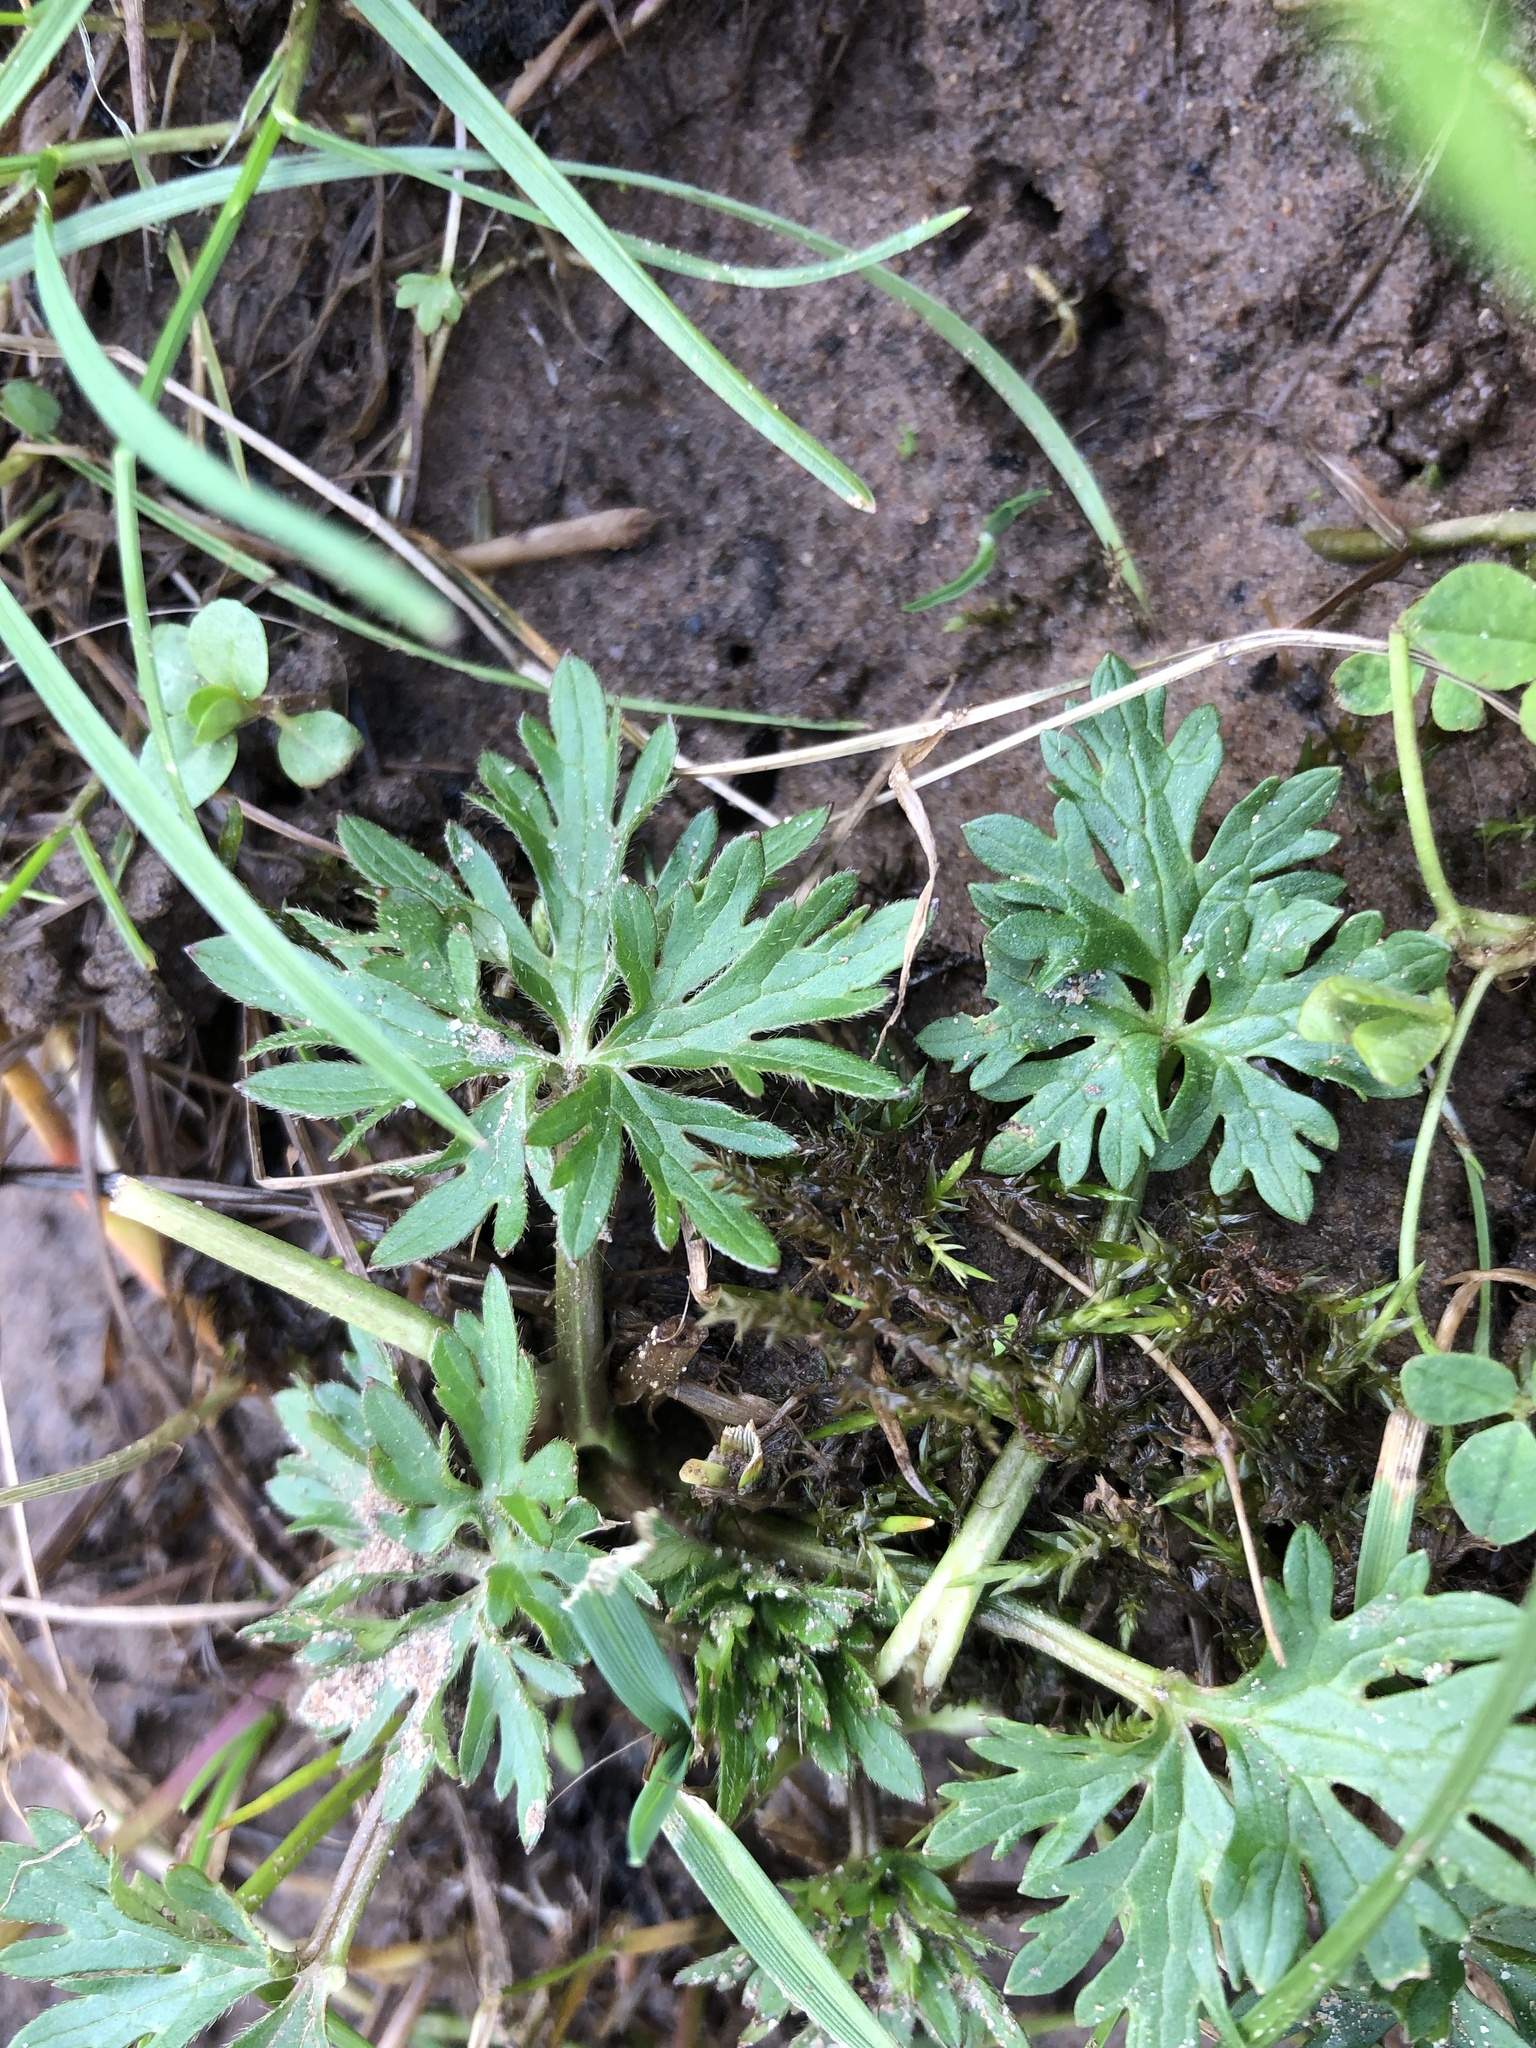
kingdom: Plantae
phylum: Tracheophyta
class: Magnoliopsida
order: Ranunculales
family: Ranunculaceae
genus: Ranunculus
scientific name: Ranunculus acris
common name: Meadow buttercup
